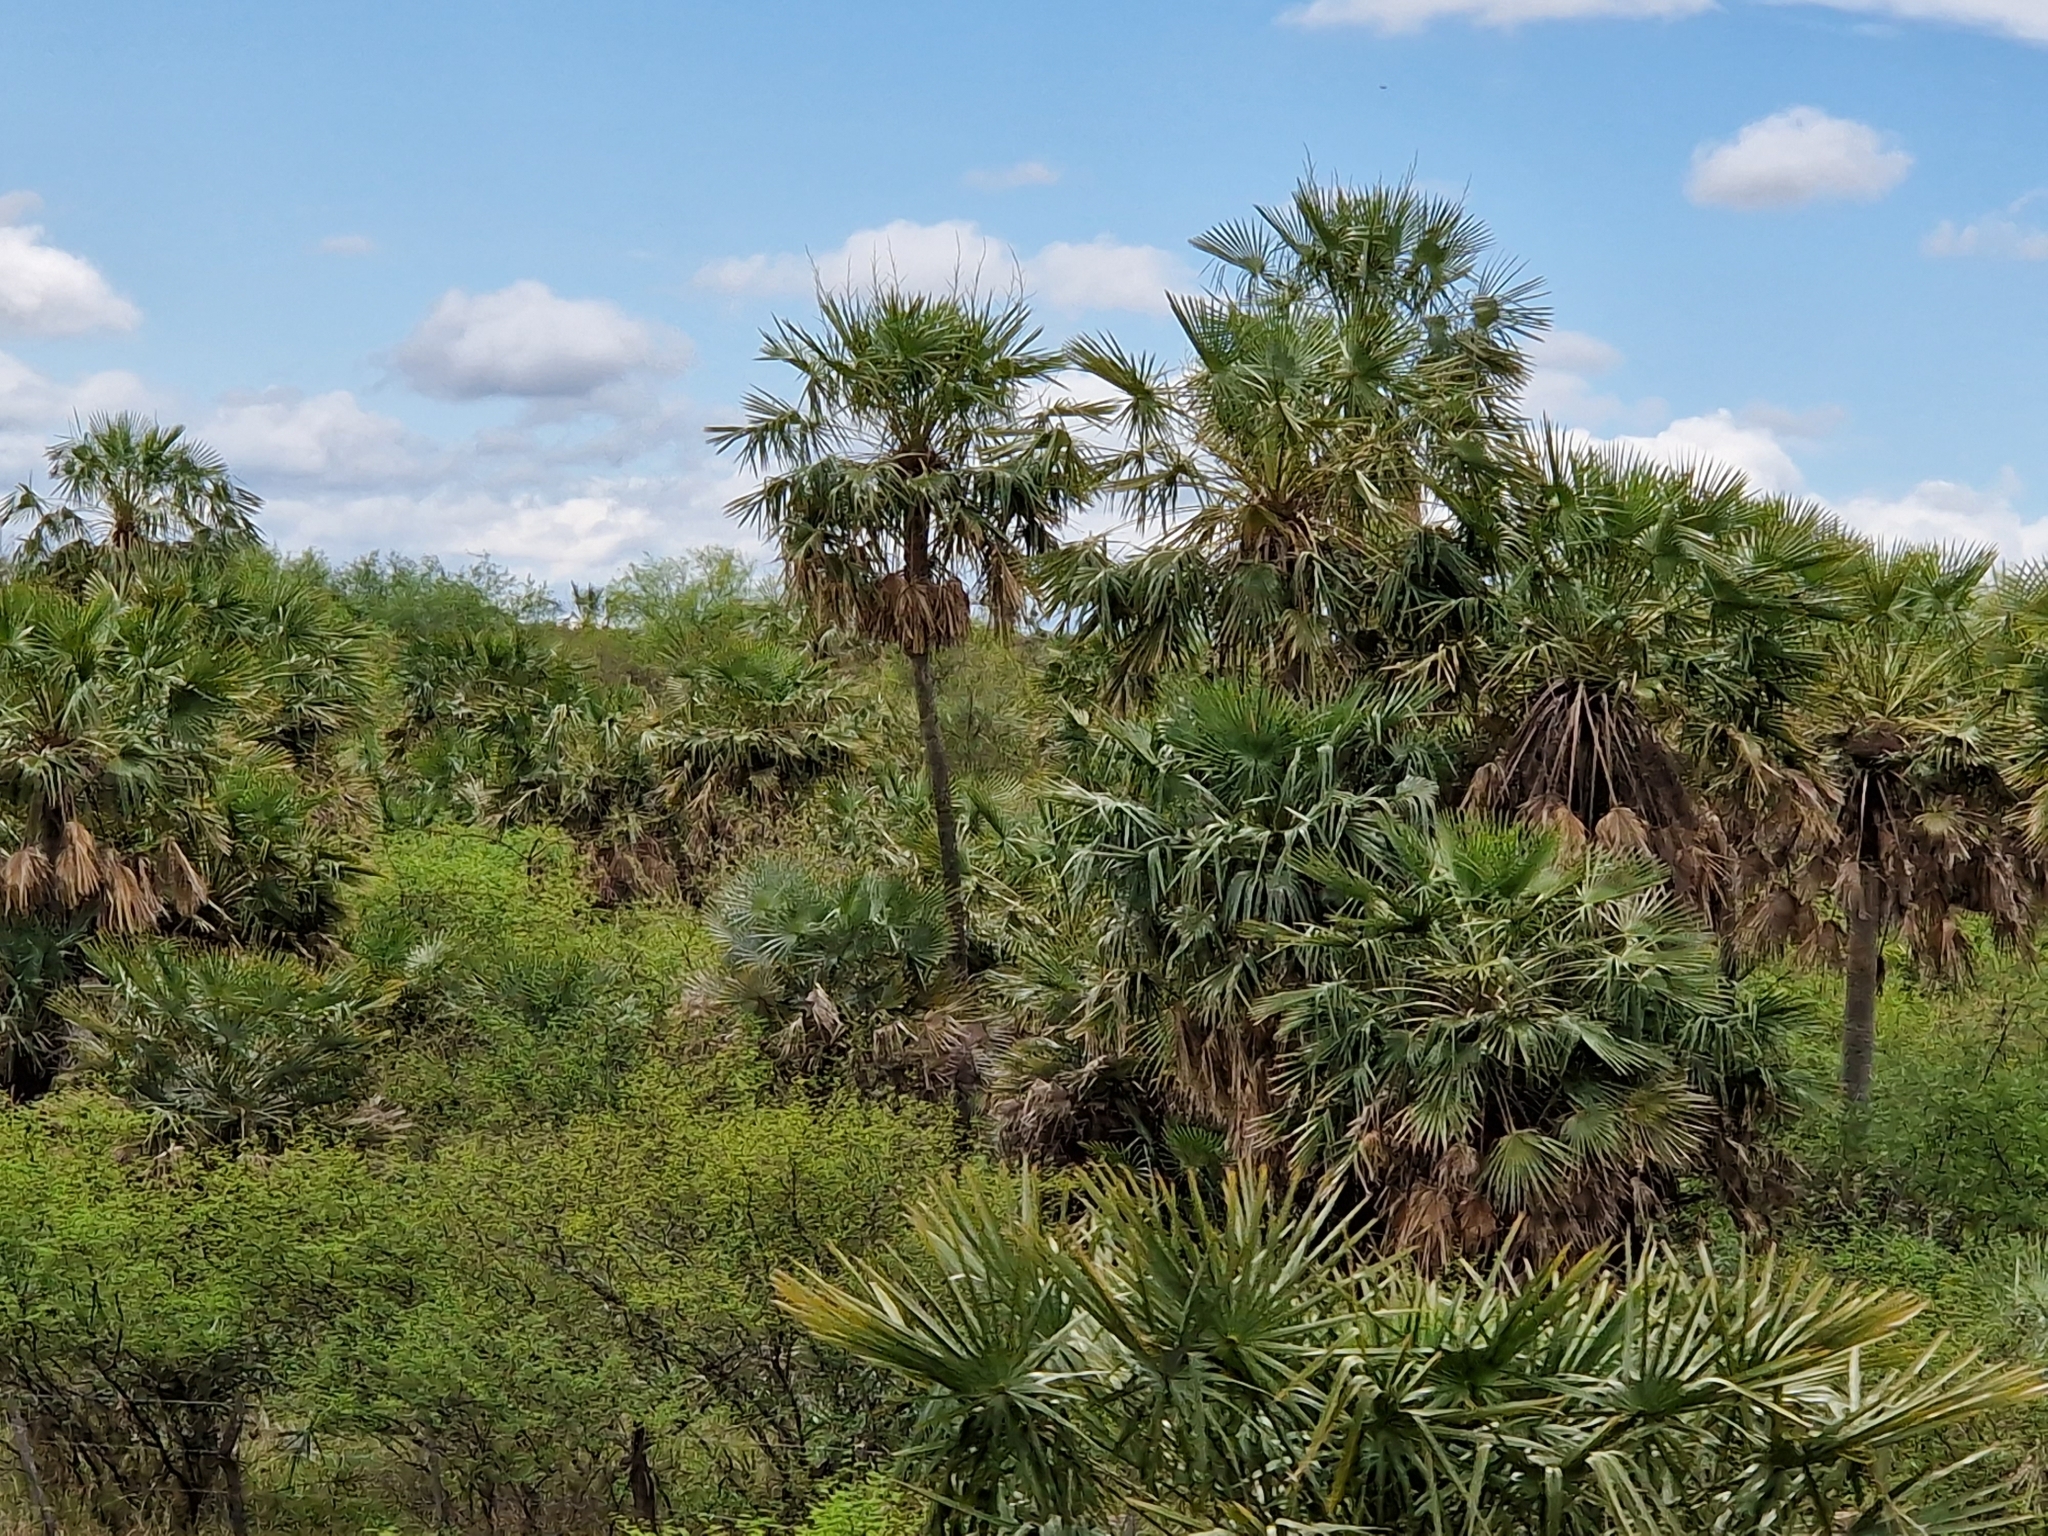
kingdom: Plantae
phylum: Tracheophyta
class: Liliopsida
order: Arecales
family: Arecaceae
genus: Copernicia
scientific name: Copernicia alba
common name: Caranday palm
